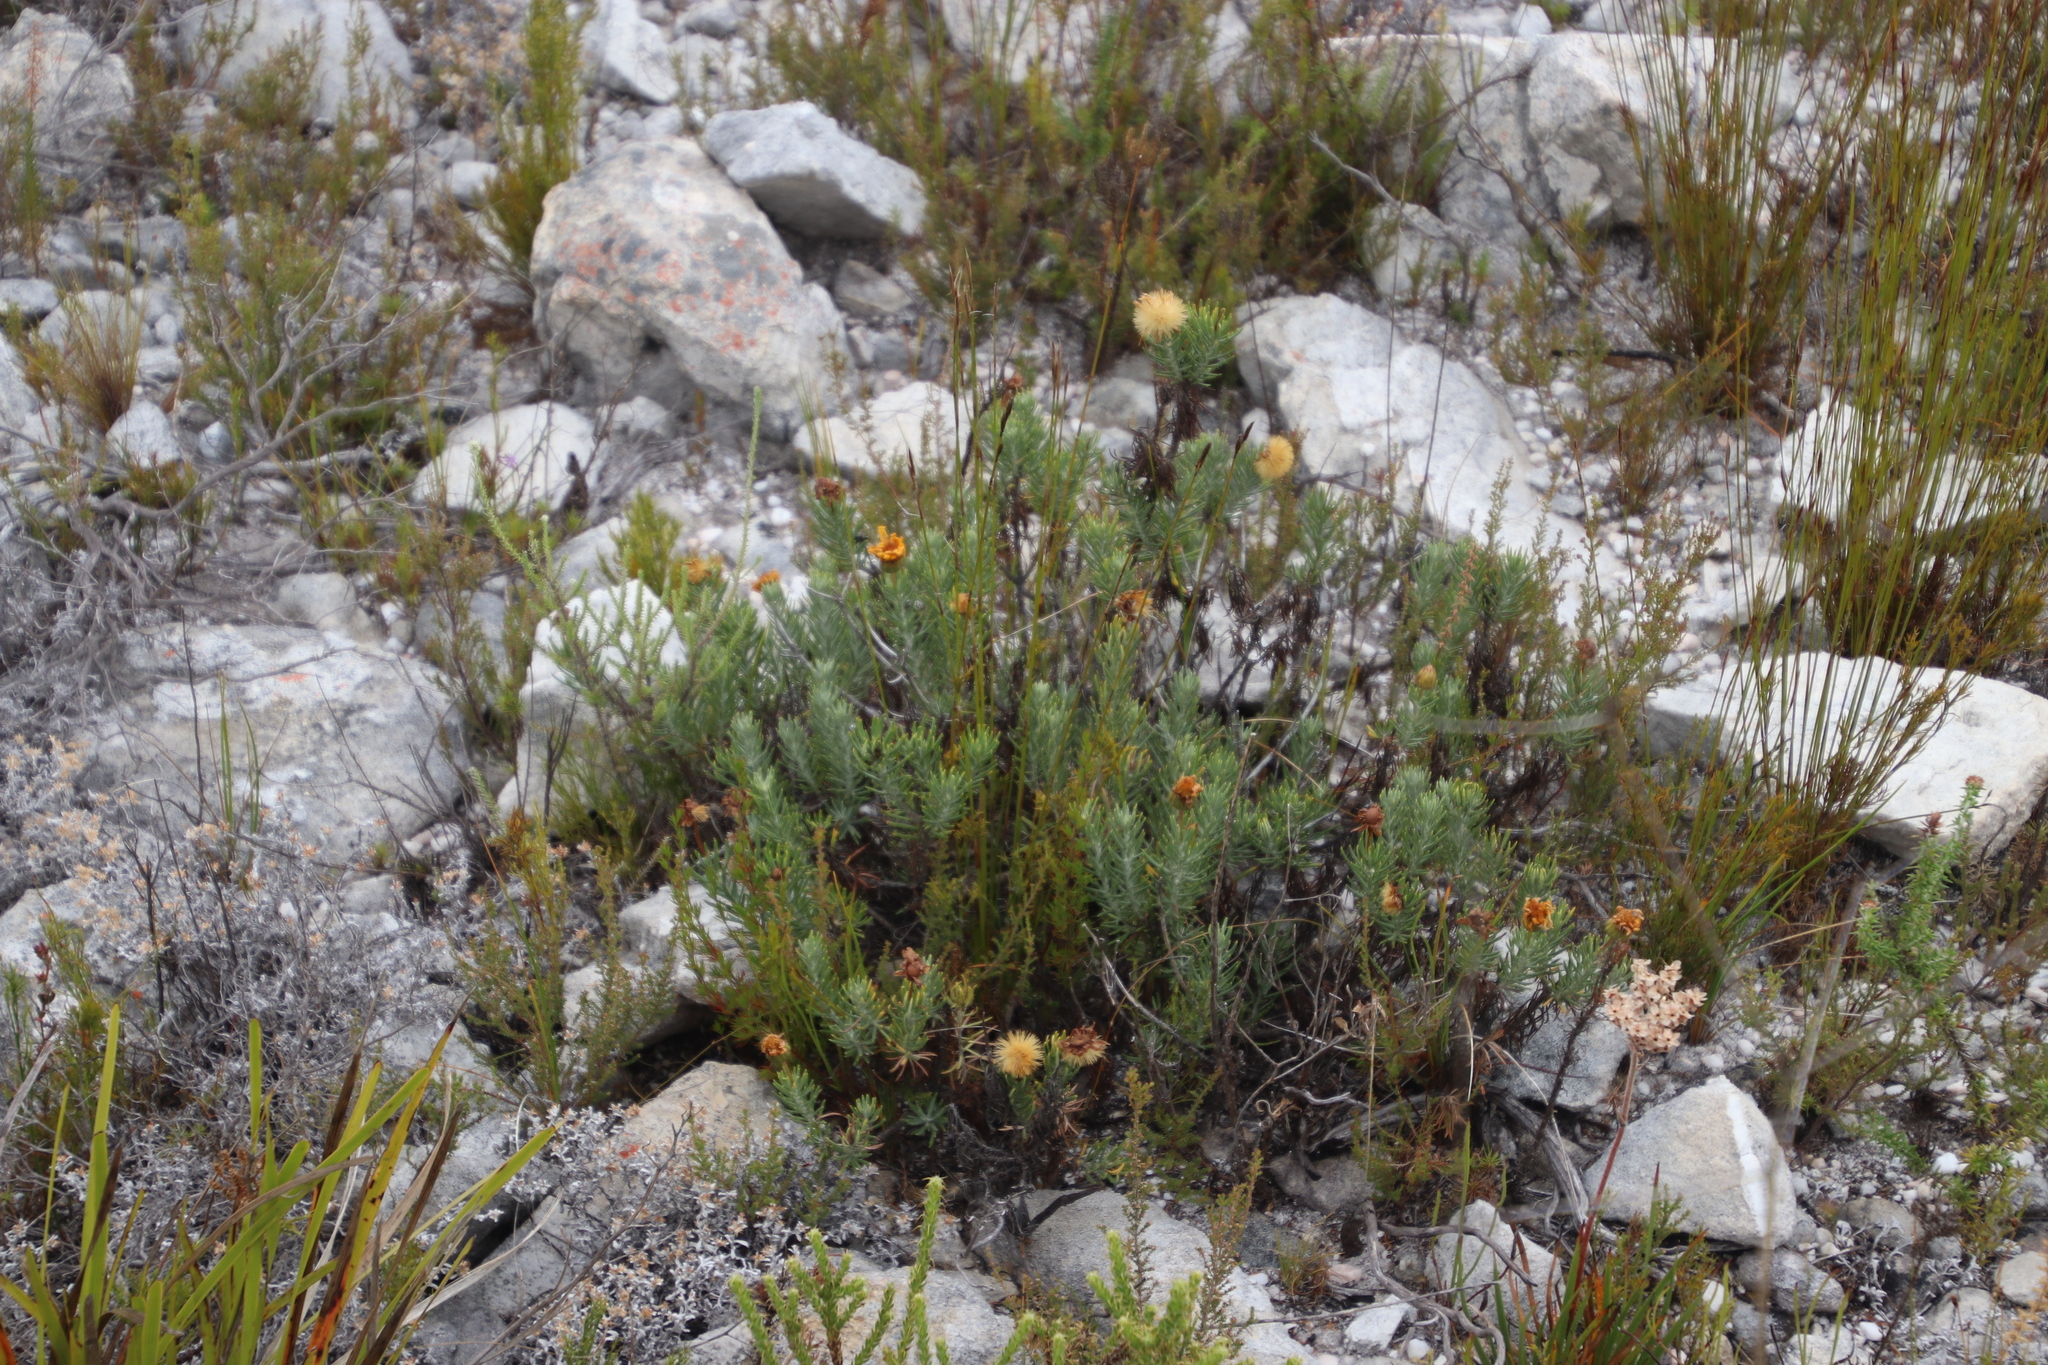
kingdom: Plantae
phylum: Tracheophyta
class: Magnoliopsida
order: Asterales
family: Asteraceae
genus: Heterolepis
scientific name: Heterolepis aliena
